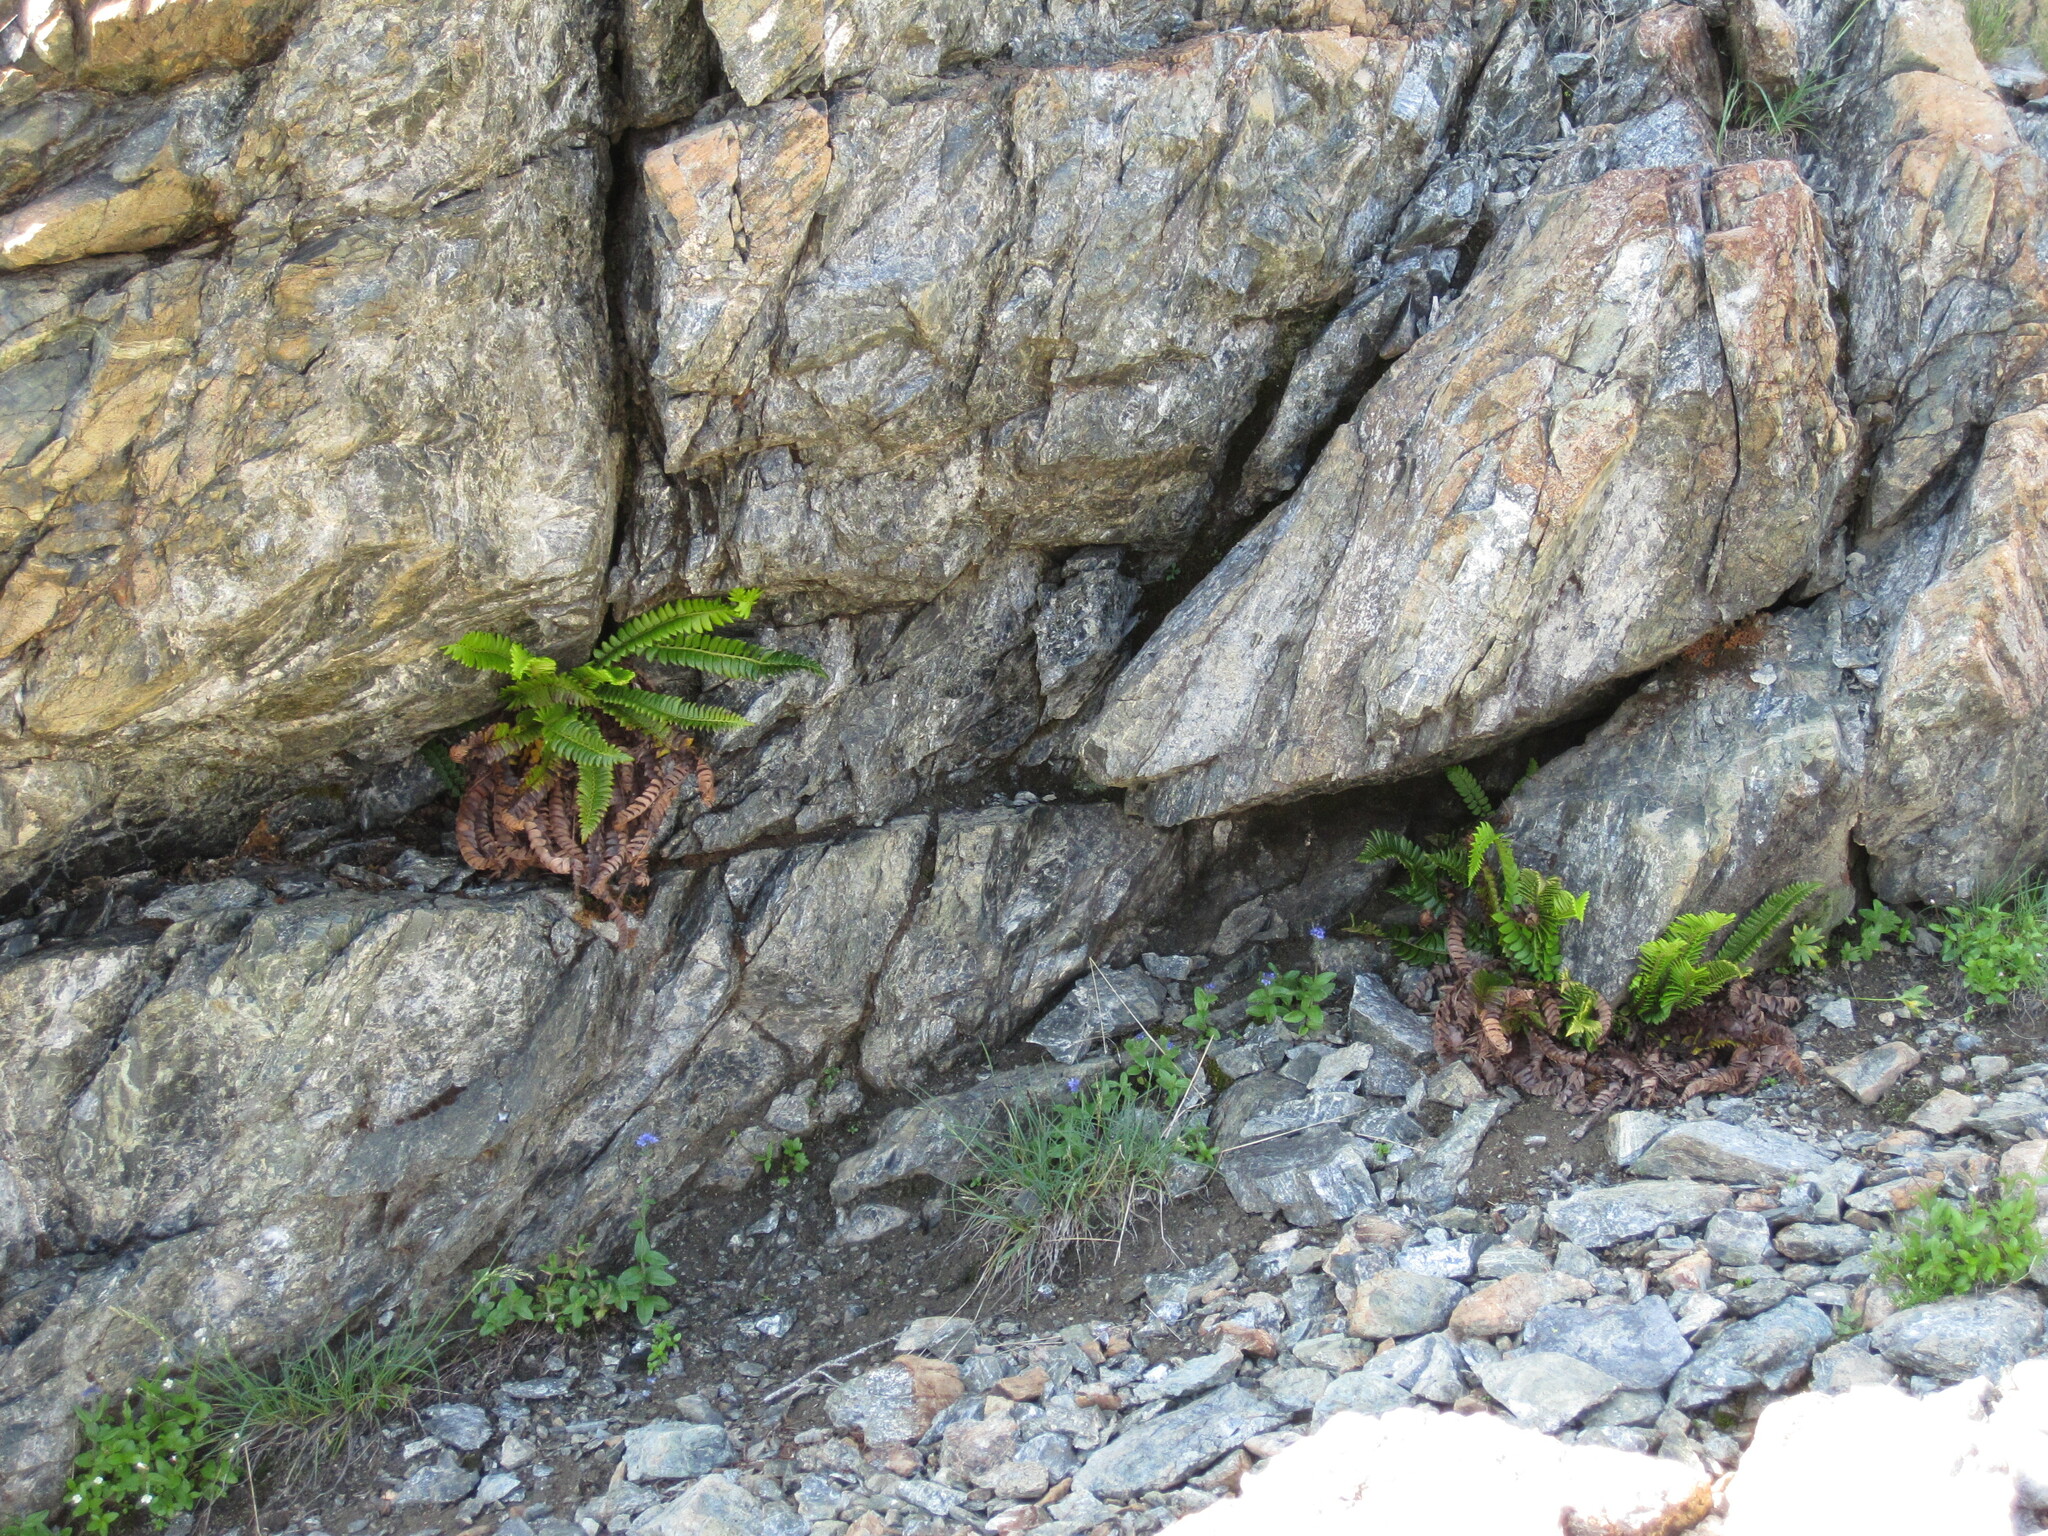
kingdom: Plantae
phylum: Tracheophyta
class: Polypodiopsida
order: Polypodiales
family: Dryopteridaceae
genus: Polystichum
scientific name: Polystichum lonchitis
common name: Holly fern
